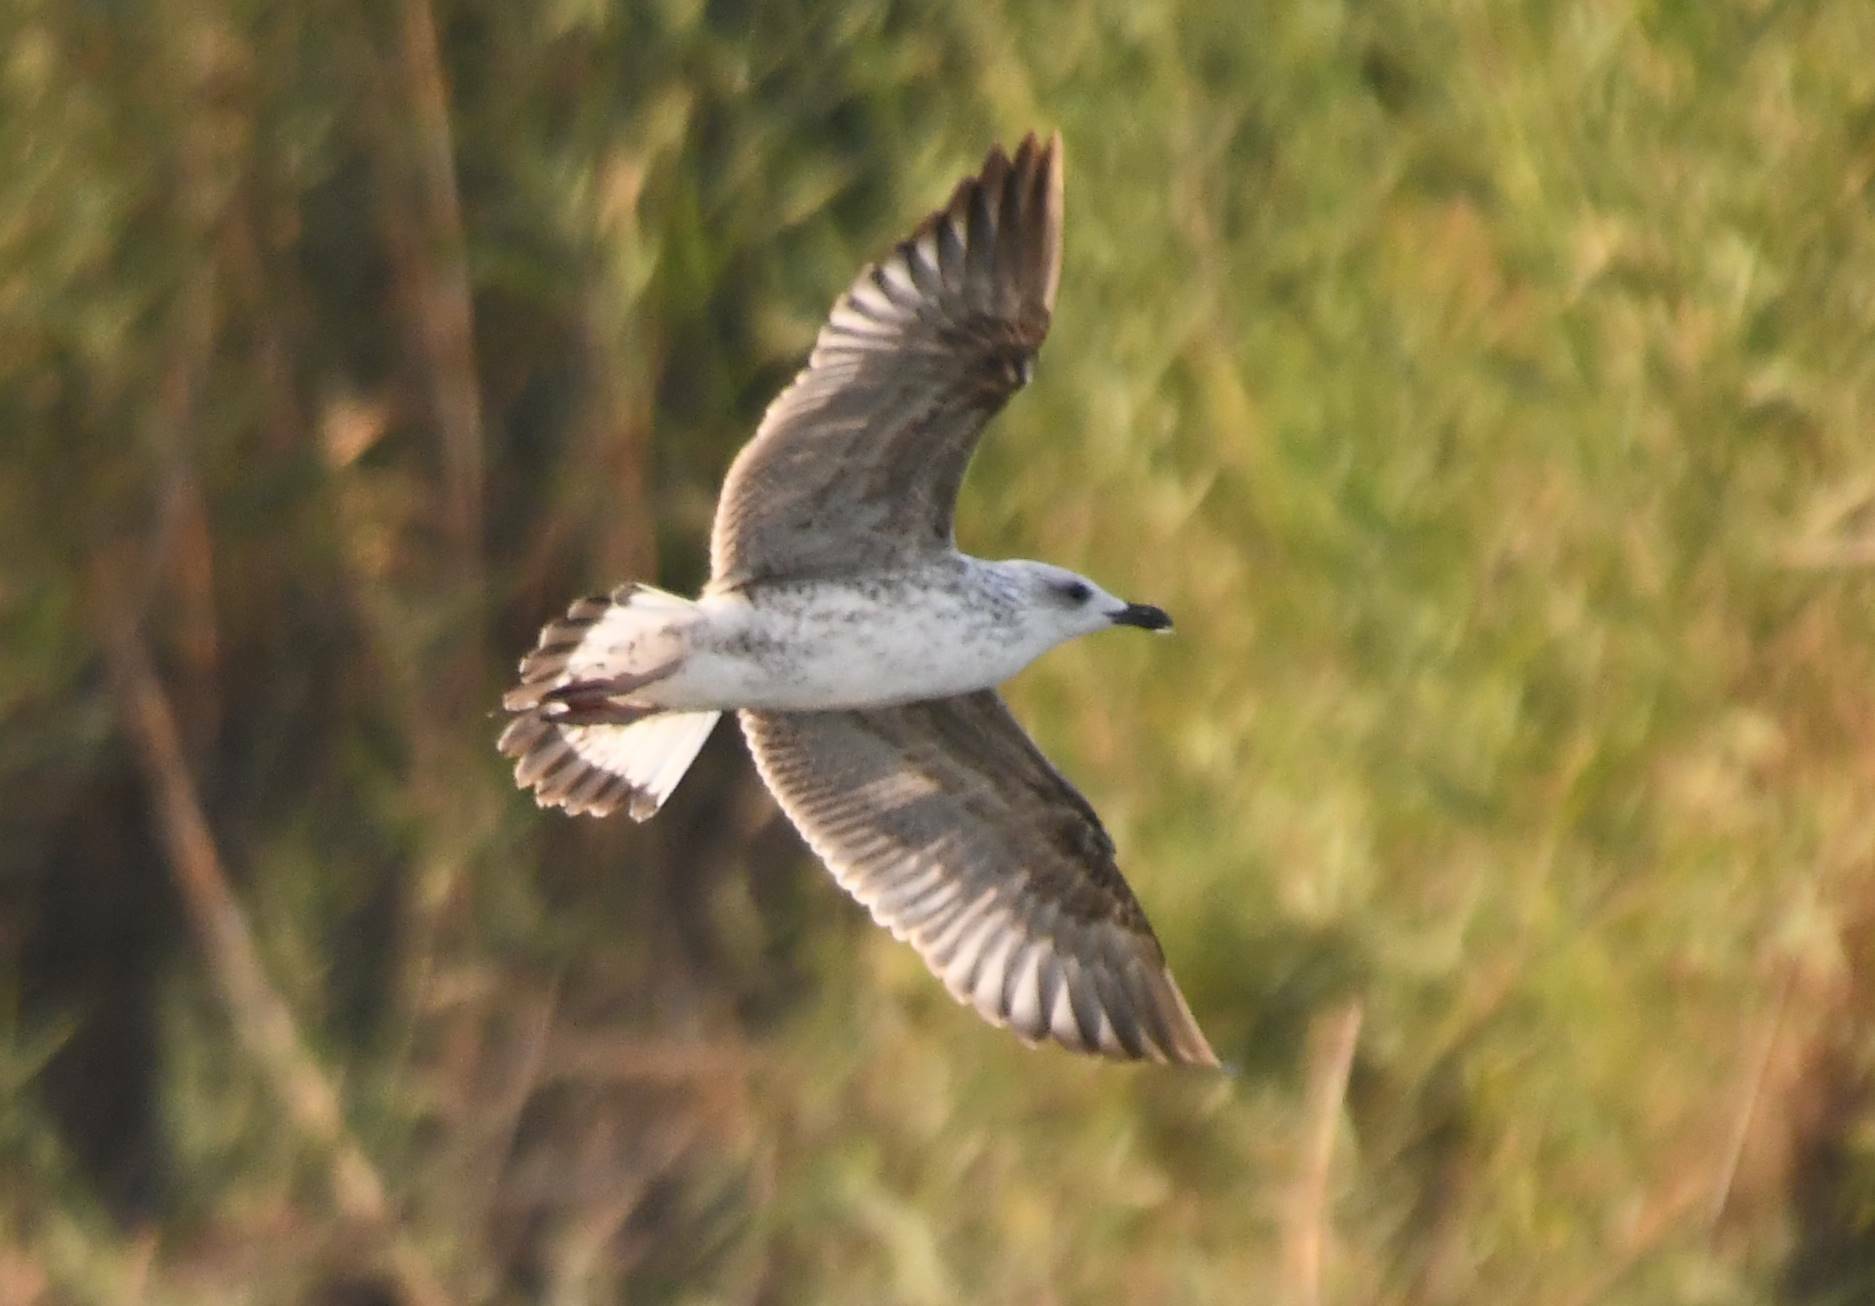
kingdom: Animalia
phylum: Chordata
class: Aves
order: Charadriiformes
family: Laridae
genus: Larus
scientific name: Larus michahellis
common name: Yellow-legged gull
